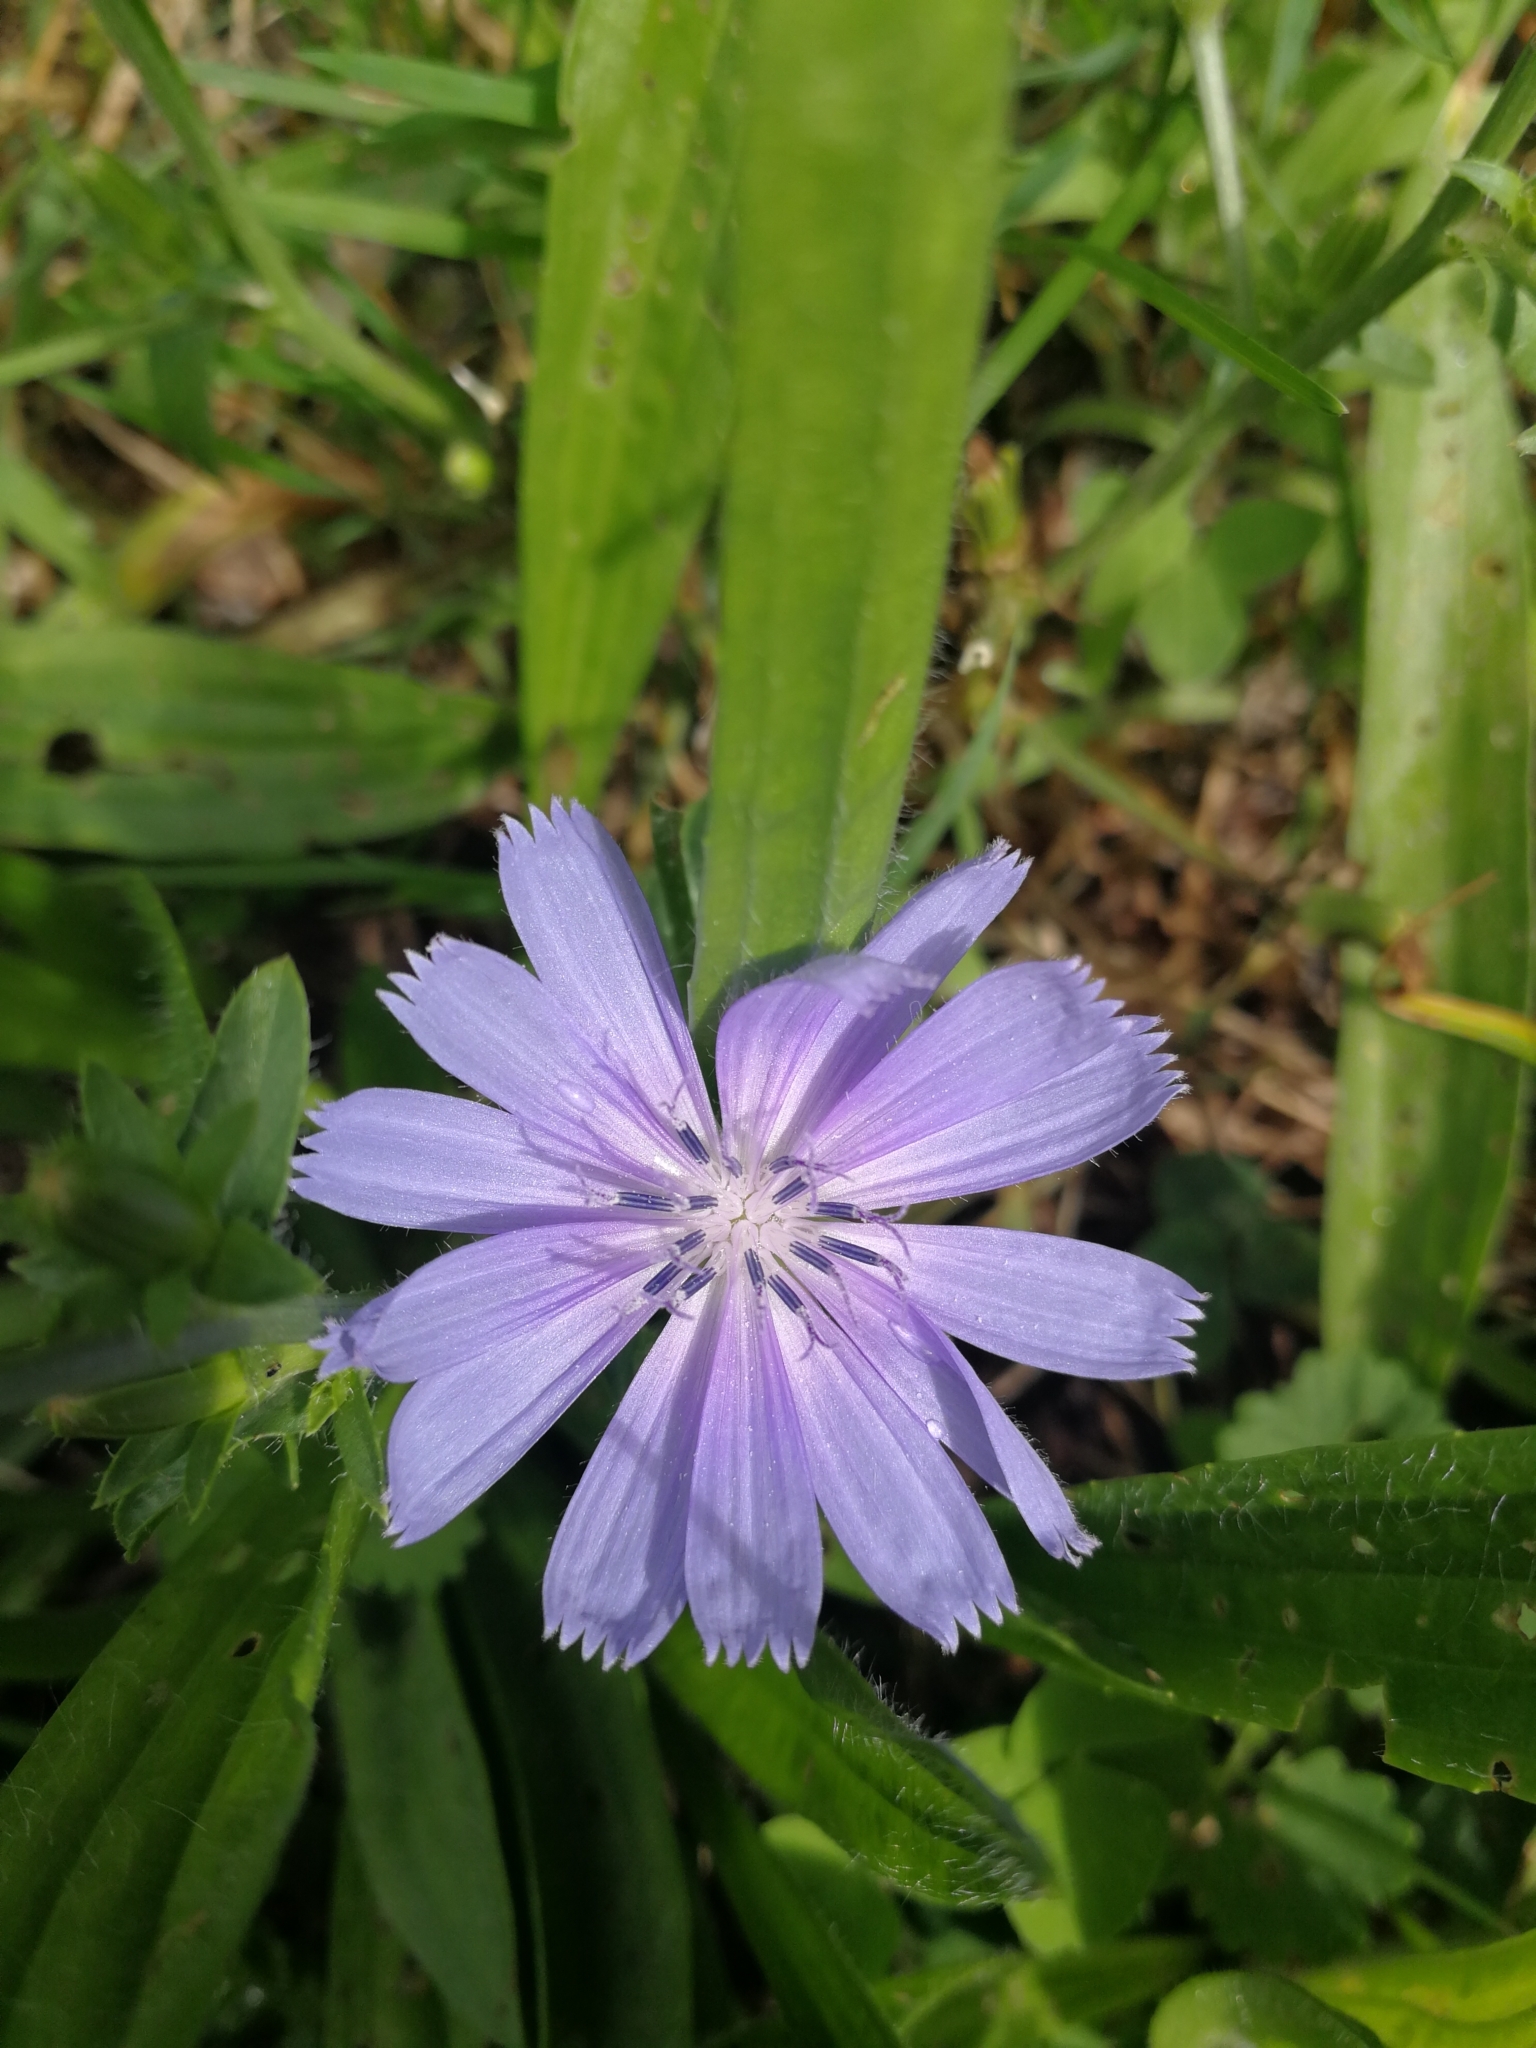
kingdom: Plantae
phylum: Tracheophyta
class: Magnoliopsida
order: Asterales
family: Asteraceae
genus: Cichorium
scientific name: Cichorium intybus
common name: Chicory
